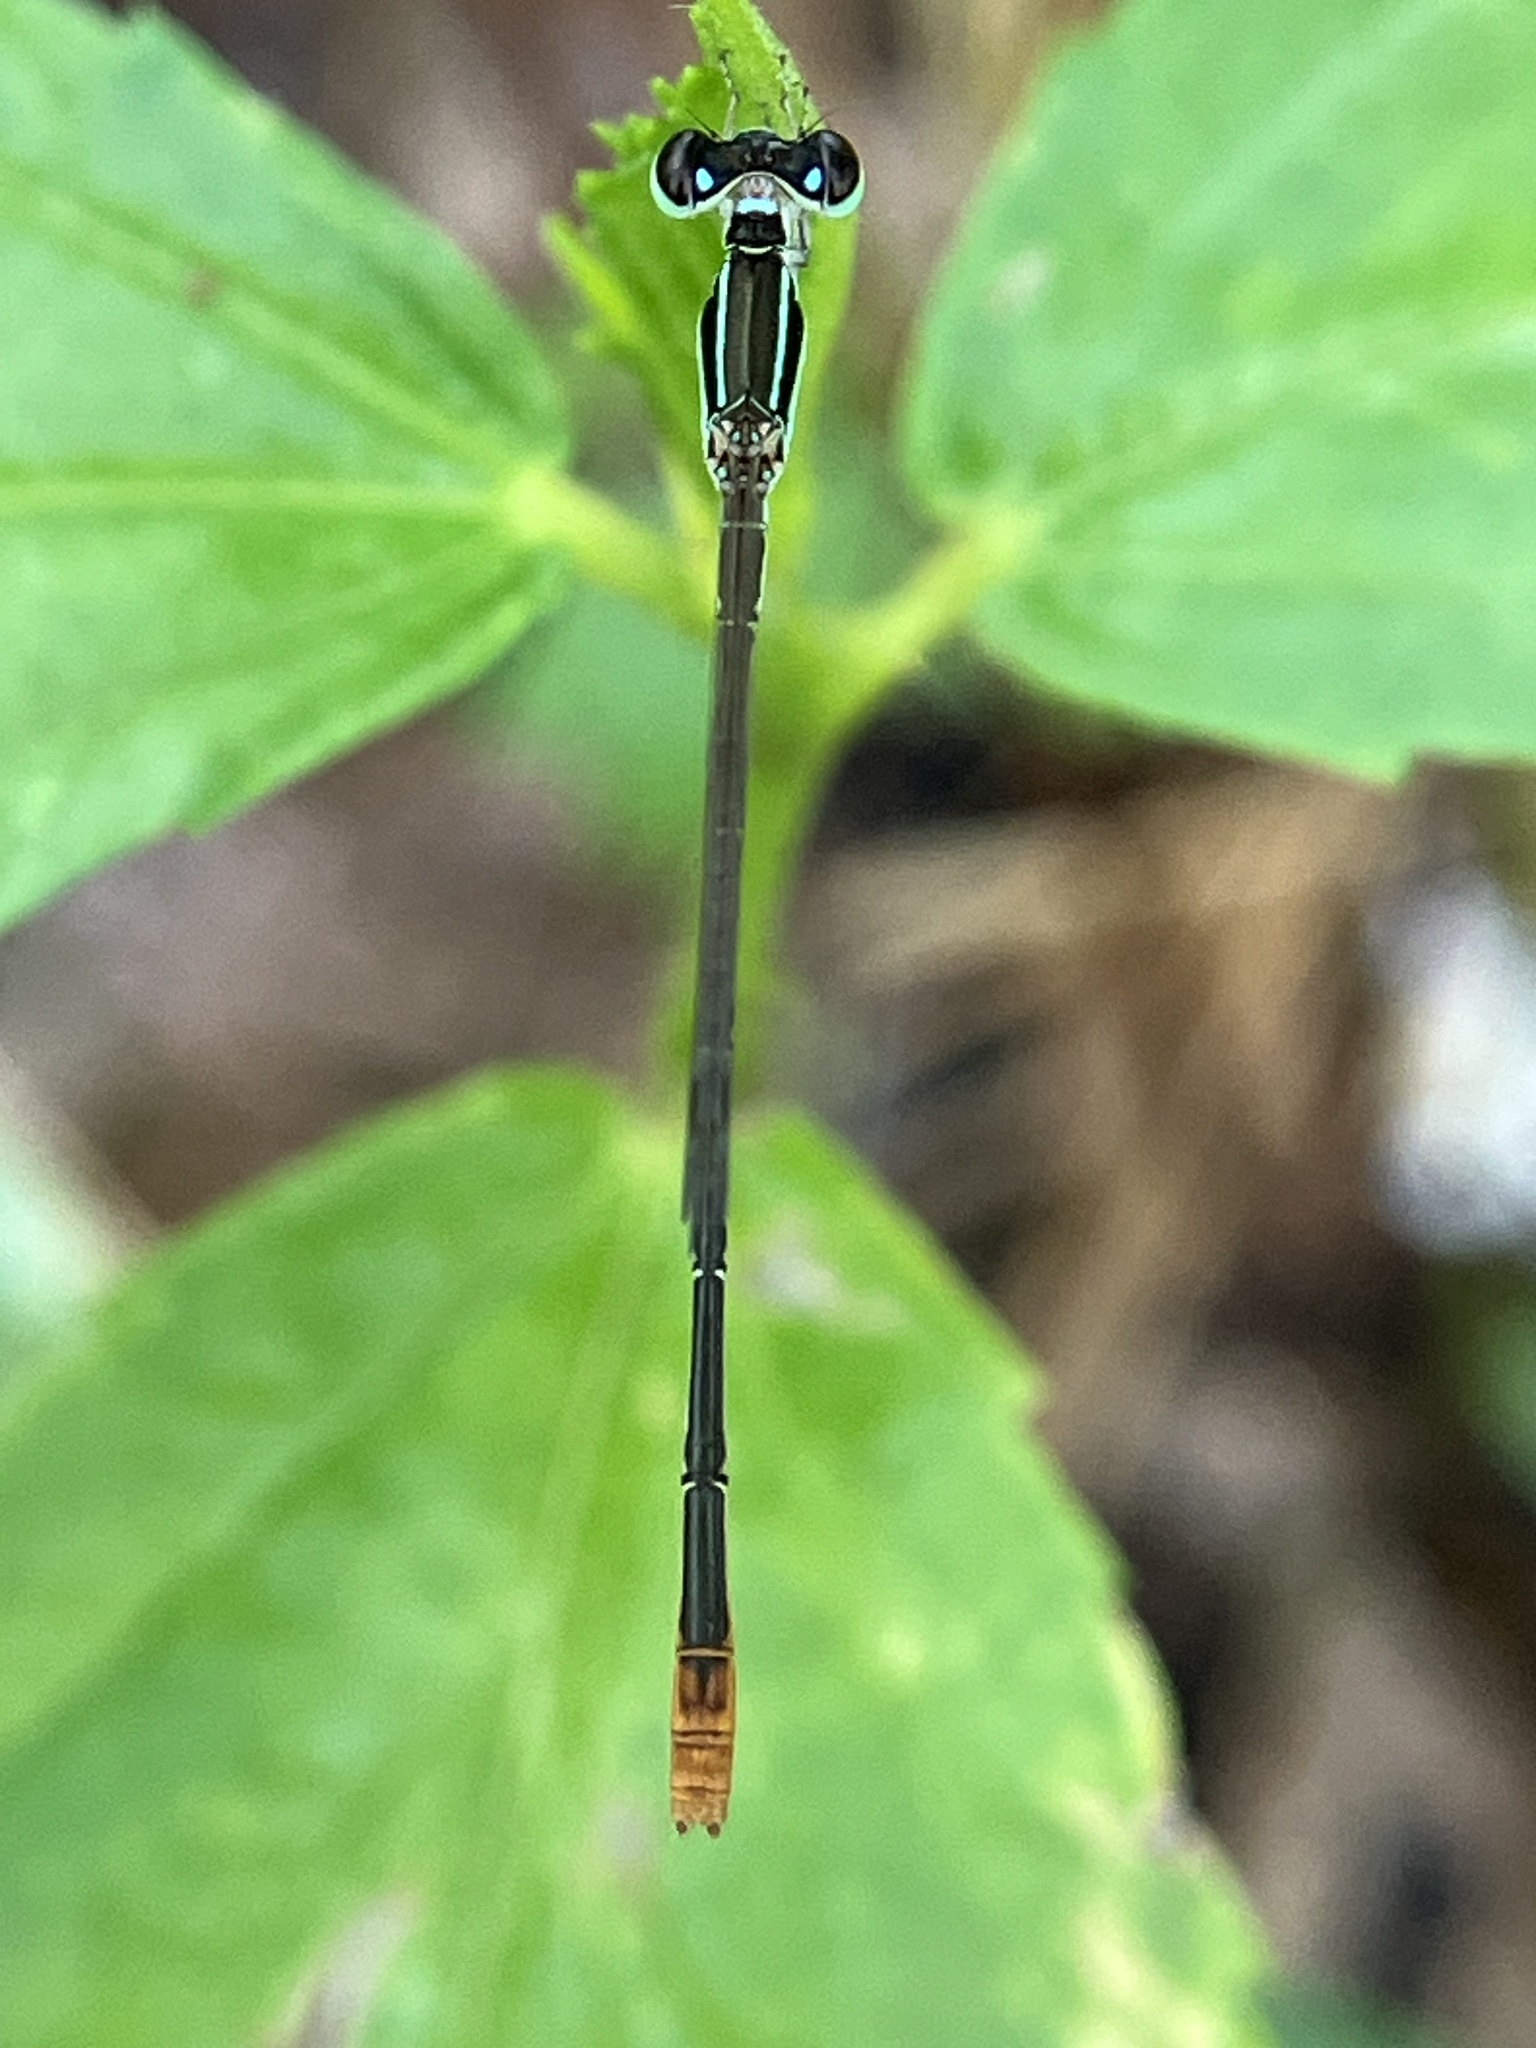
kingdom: Animalia
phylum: Arthropoda
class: Insecta
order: Odonata
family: Coenagrionidae
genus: Agriocnemis
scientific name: Agriocnemis pygmaea
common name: Pygmy wisp
